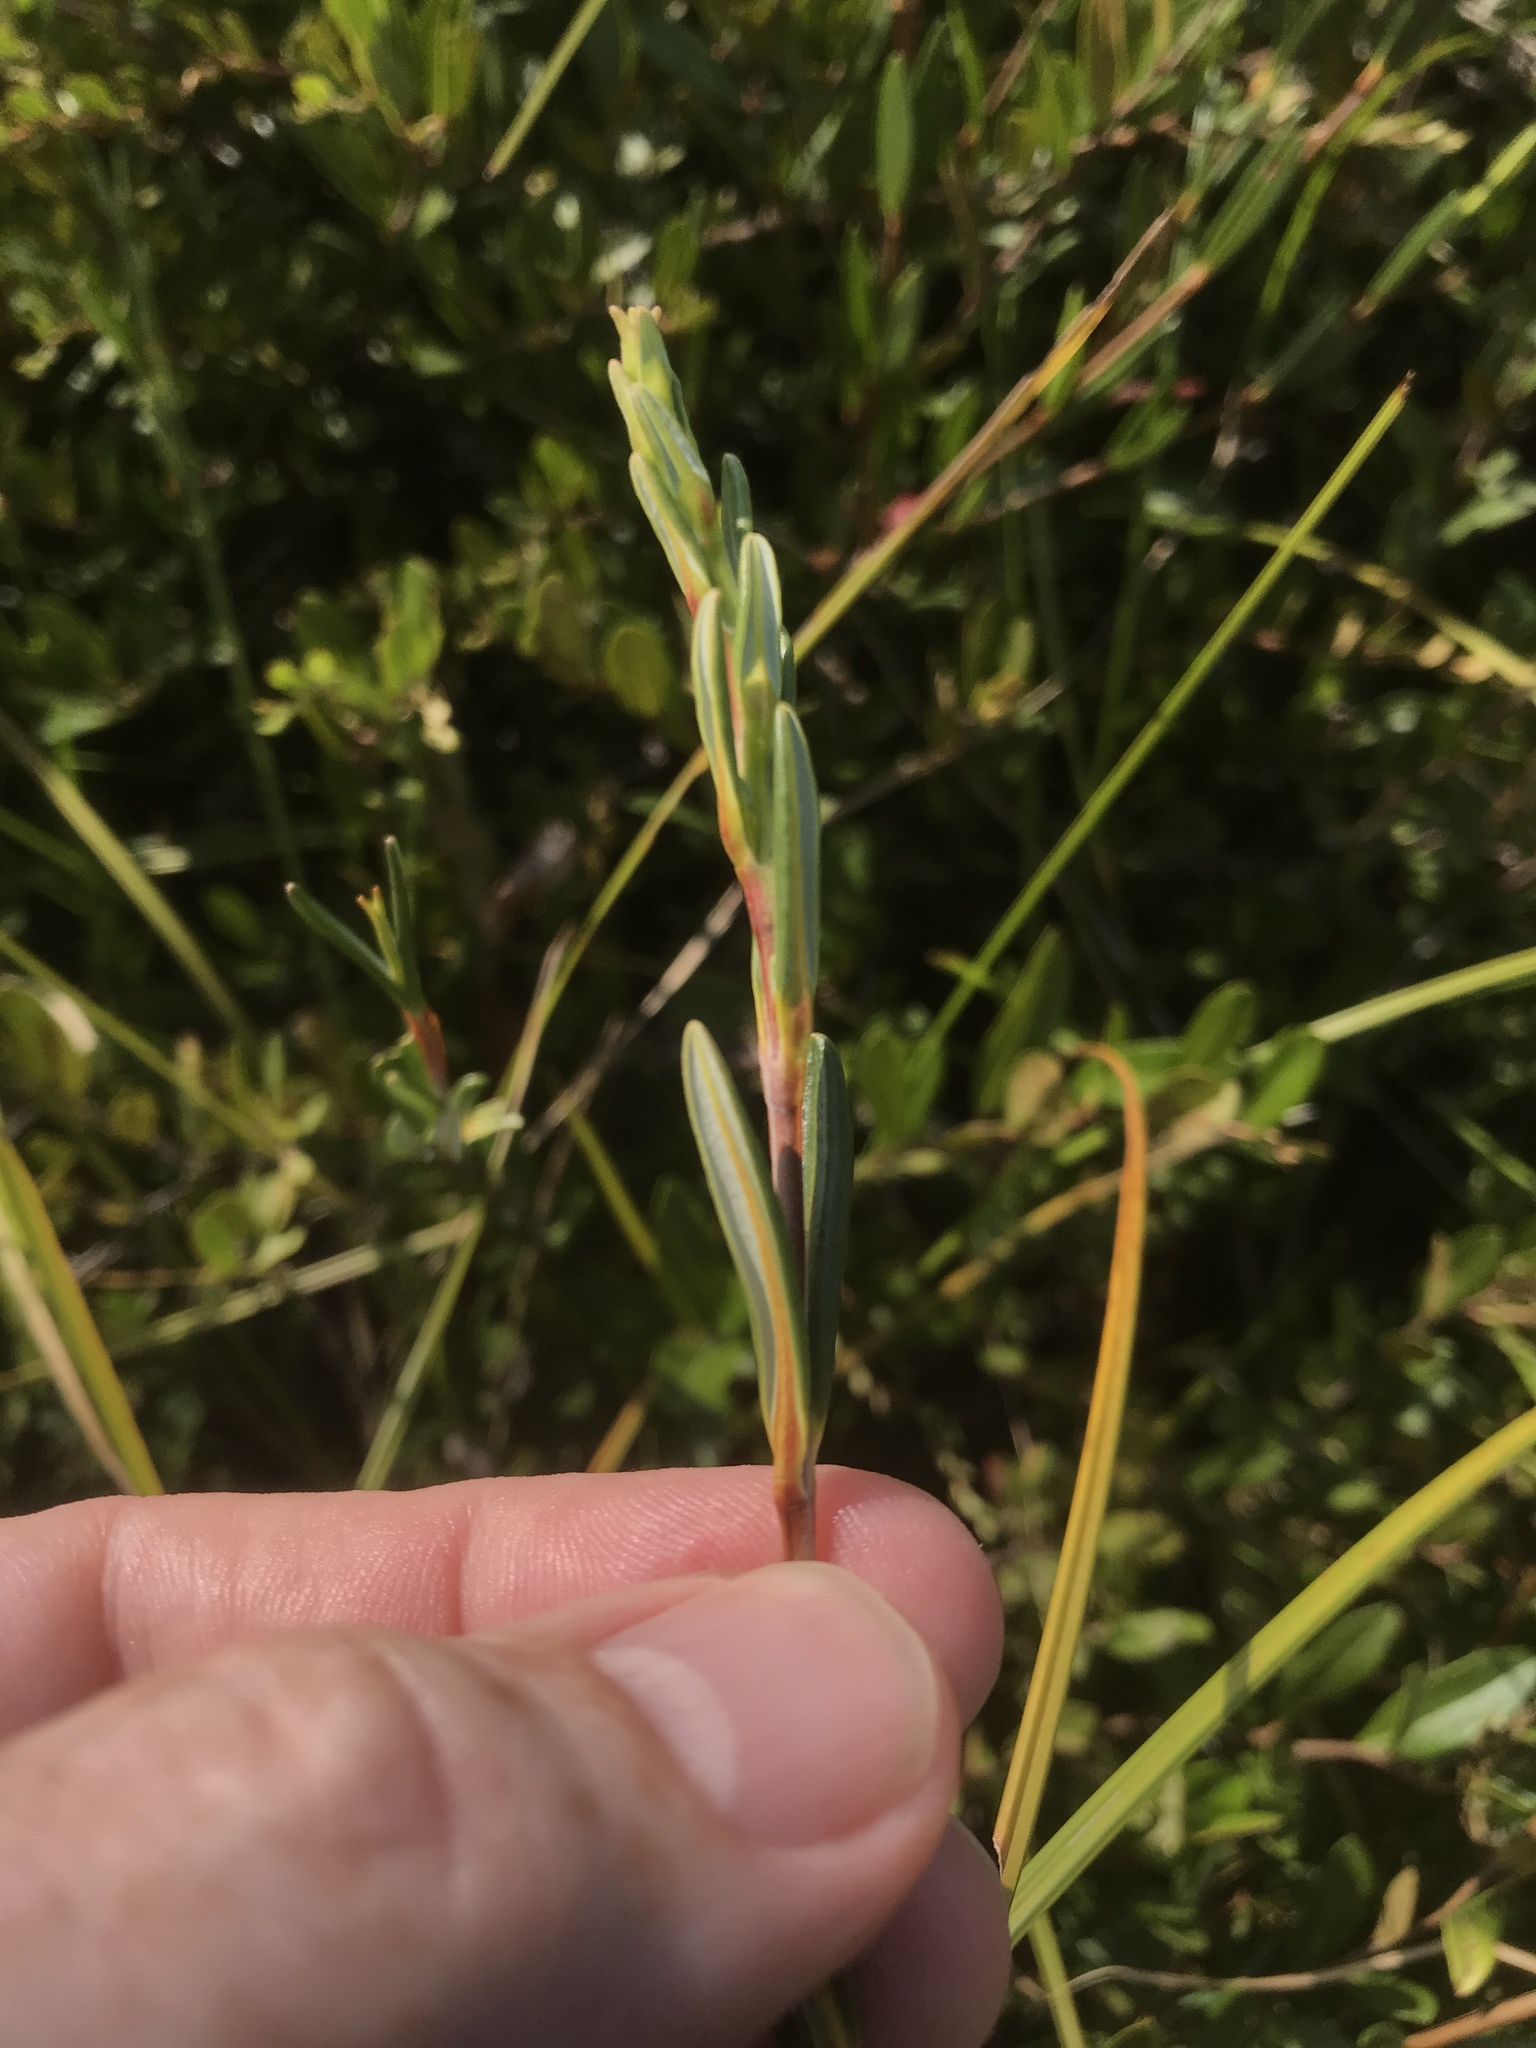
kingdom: Plantae
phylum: Tracheophyta
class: Magnoliopsida
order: Ericales
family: Ericaceae
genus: Kalmia
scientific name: Kalmia polifolia
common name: Bog-laurel
